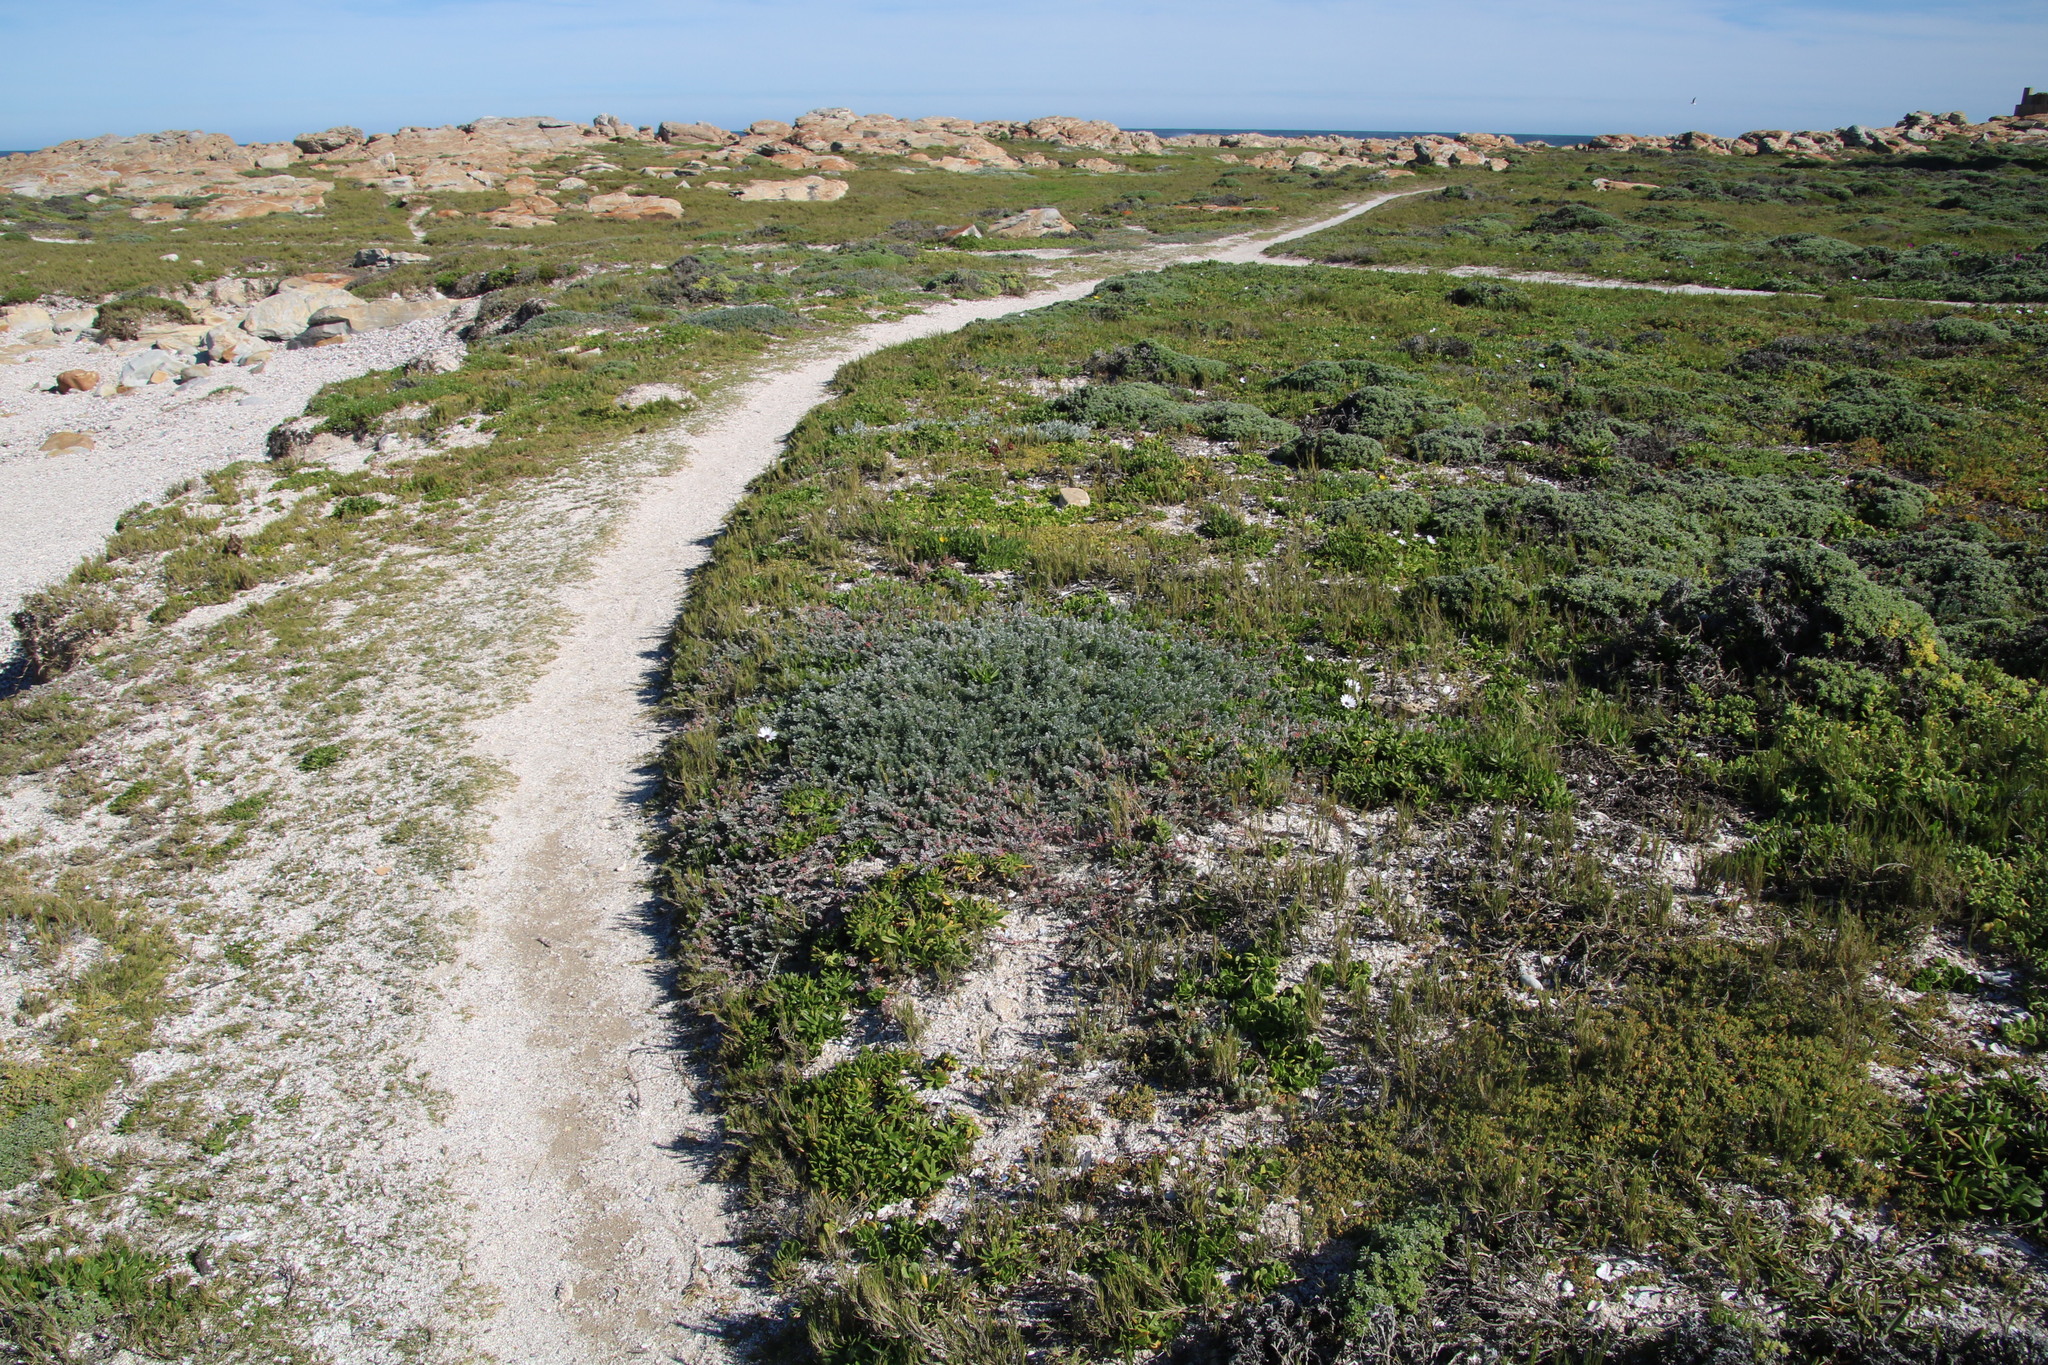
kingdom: Plantae
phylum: Tracheophyta
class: Magnoliopsida
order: Caryophyllales
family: Amaranthaceae
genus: Chenolea
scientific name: Chenolea diffusa
